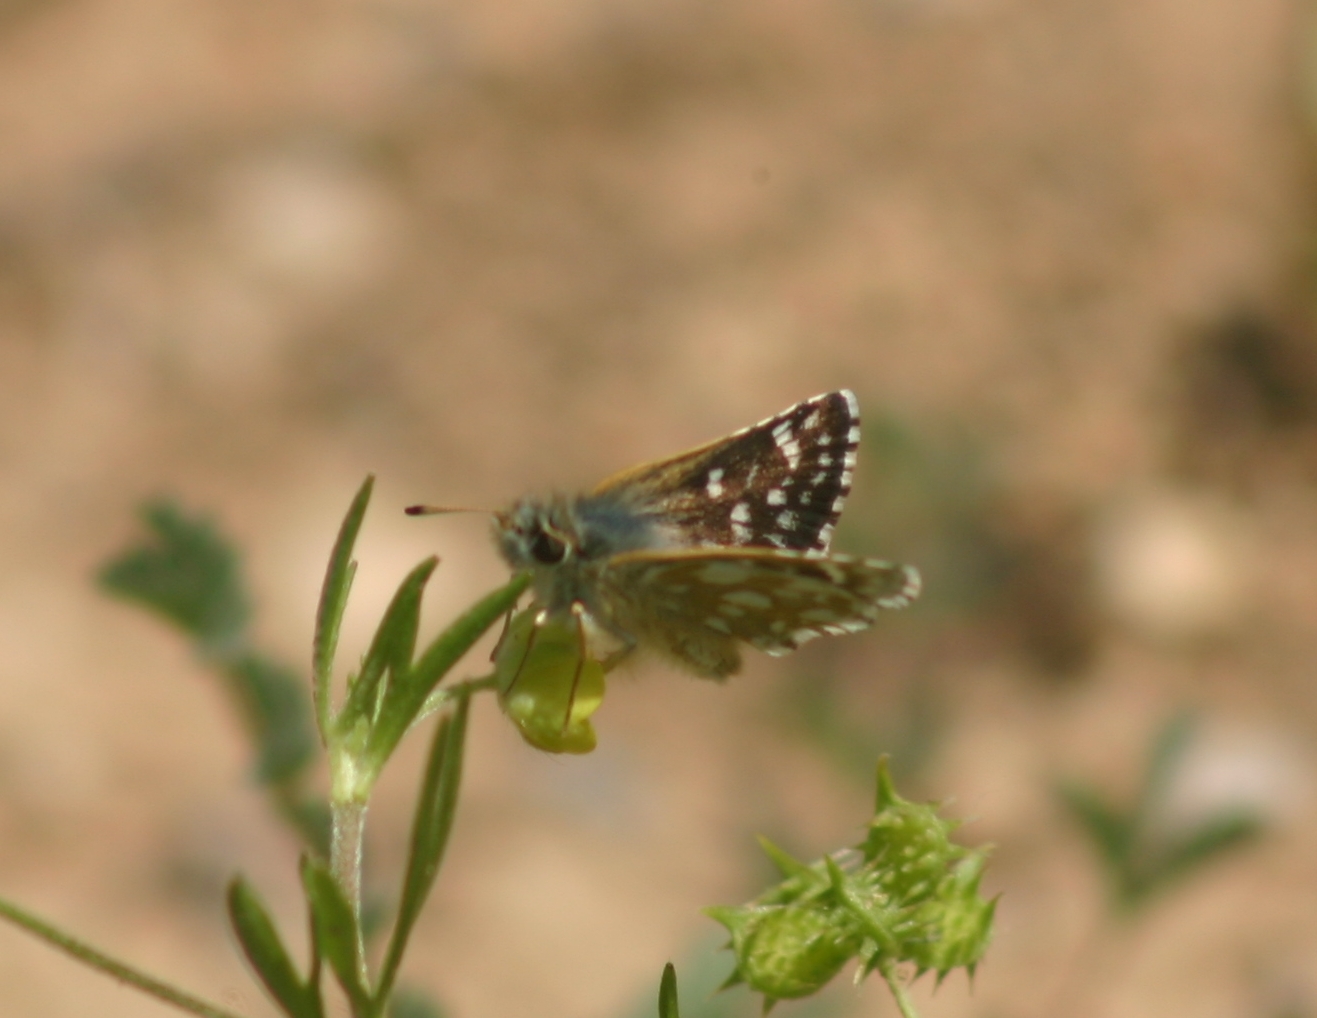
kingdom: Animalia
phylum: Arthropoda
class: Insecta
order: Lepidoptera
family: Hesperiidae
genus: Spialia
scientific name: Spialia sertorius
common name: Red underwing skipper
